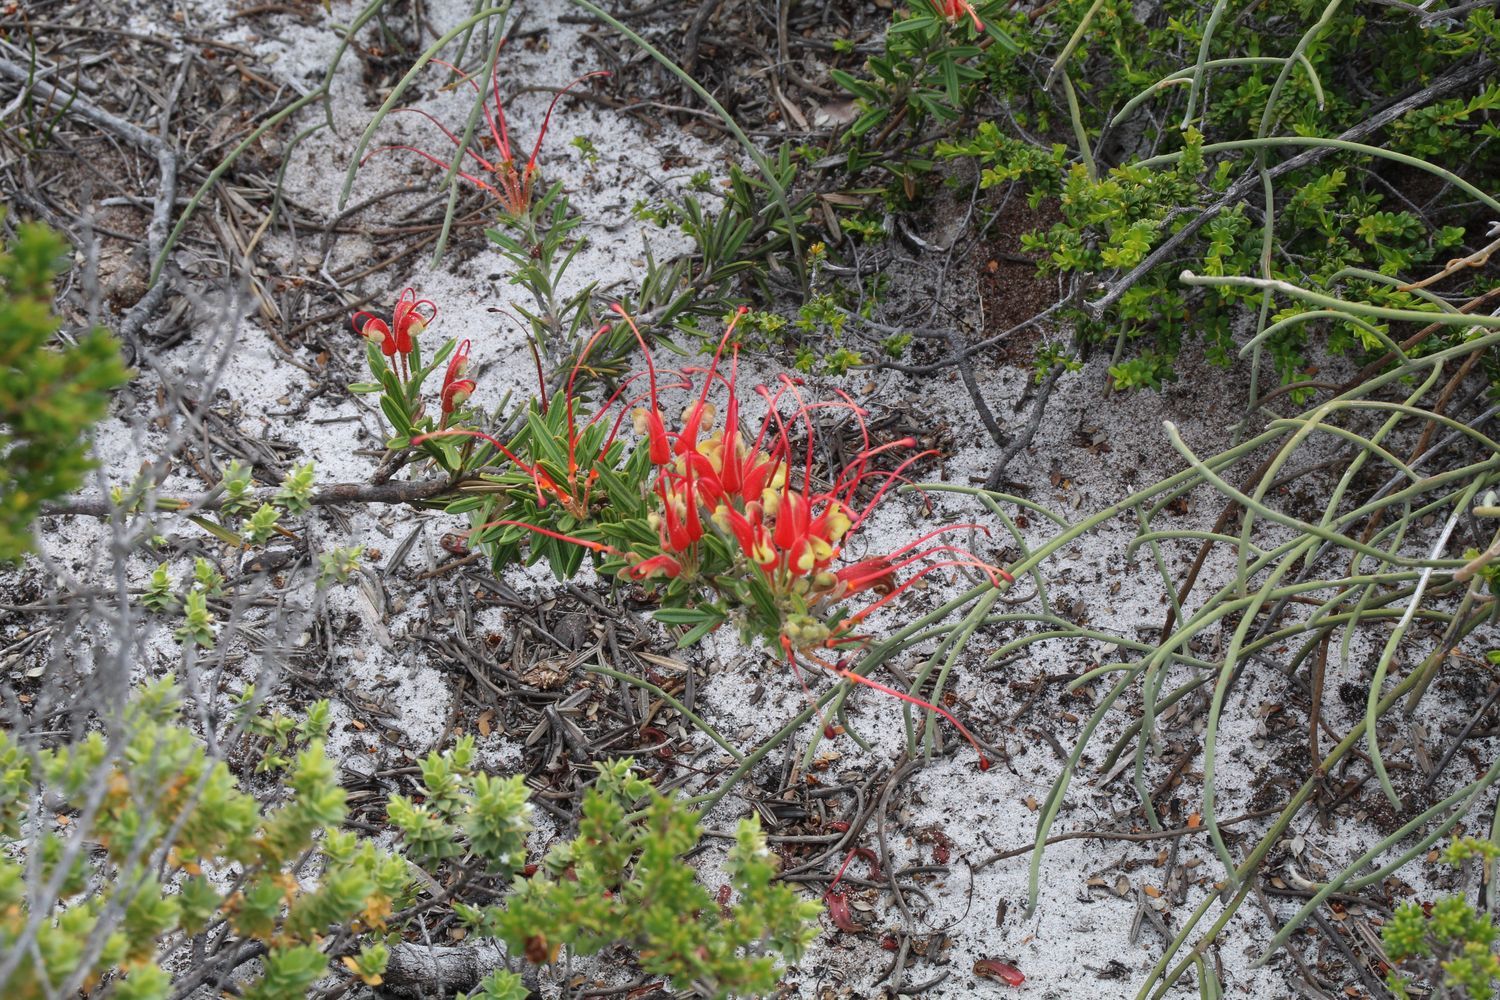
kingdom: Plantae
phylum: Tracheophyta
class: Magnoliopsida
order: Proteales
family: Proteaceae
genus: Grevillea
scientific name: Grevillea tripartita
